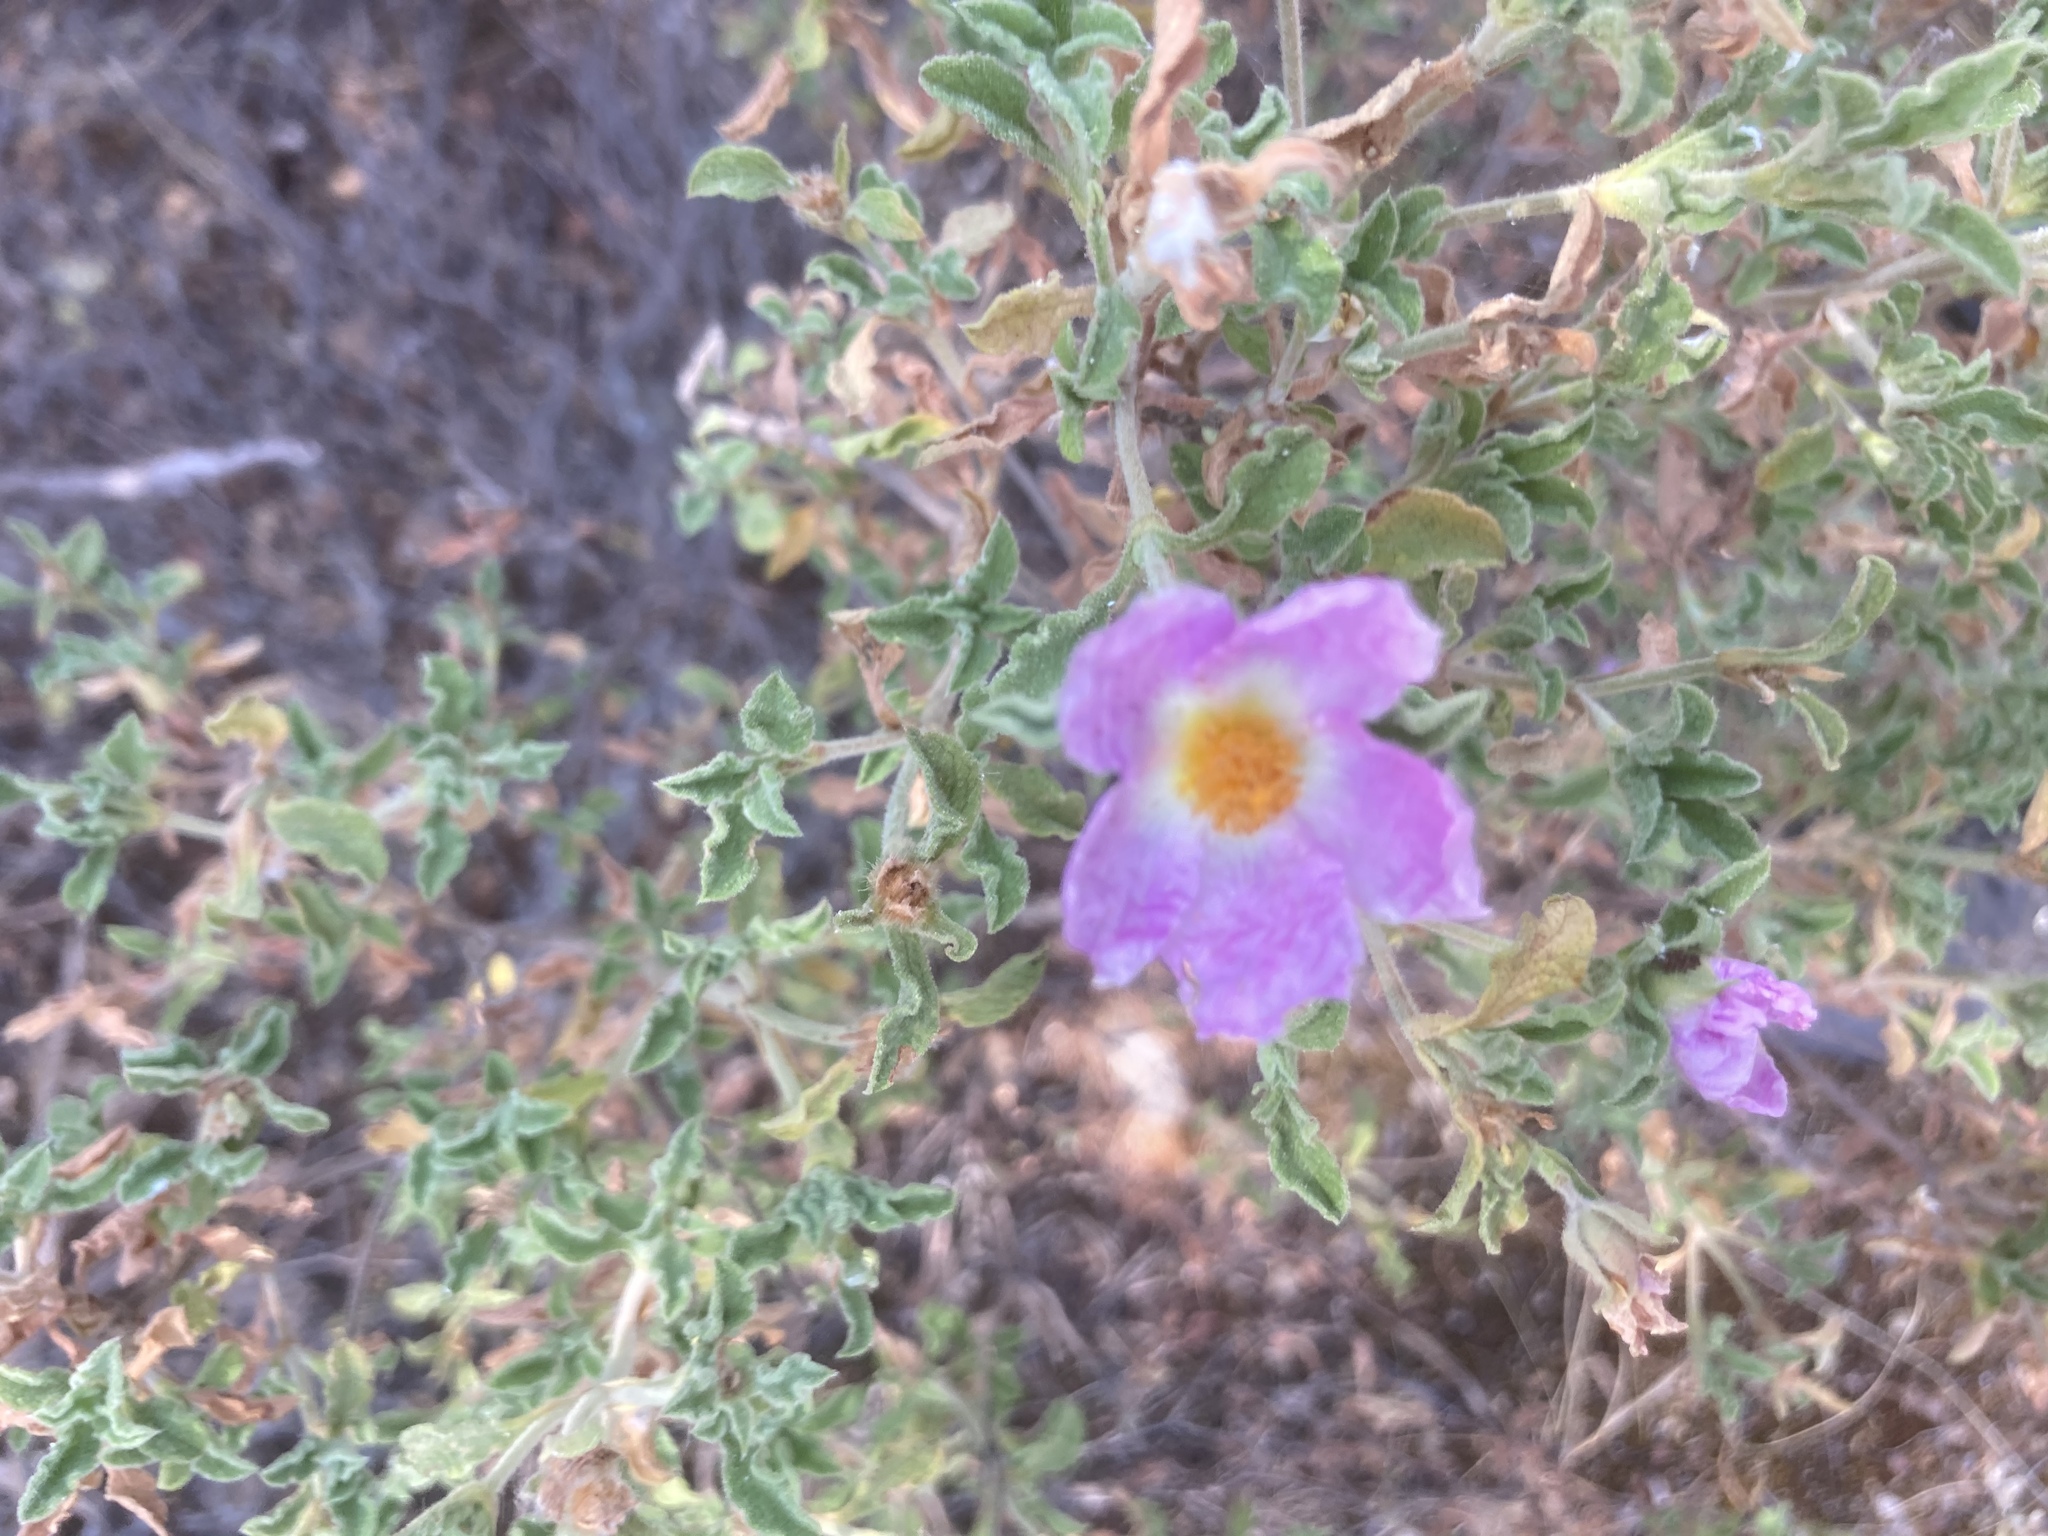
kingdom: Plantae
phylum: Tracheophyta
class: Magnoliopsida
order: Malvales
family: Cistaceae
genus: Cistus
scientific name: Cistus creticus
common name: Cretan rockrose
